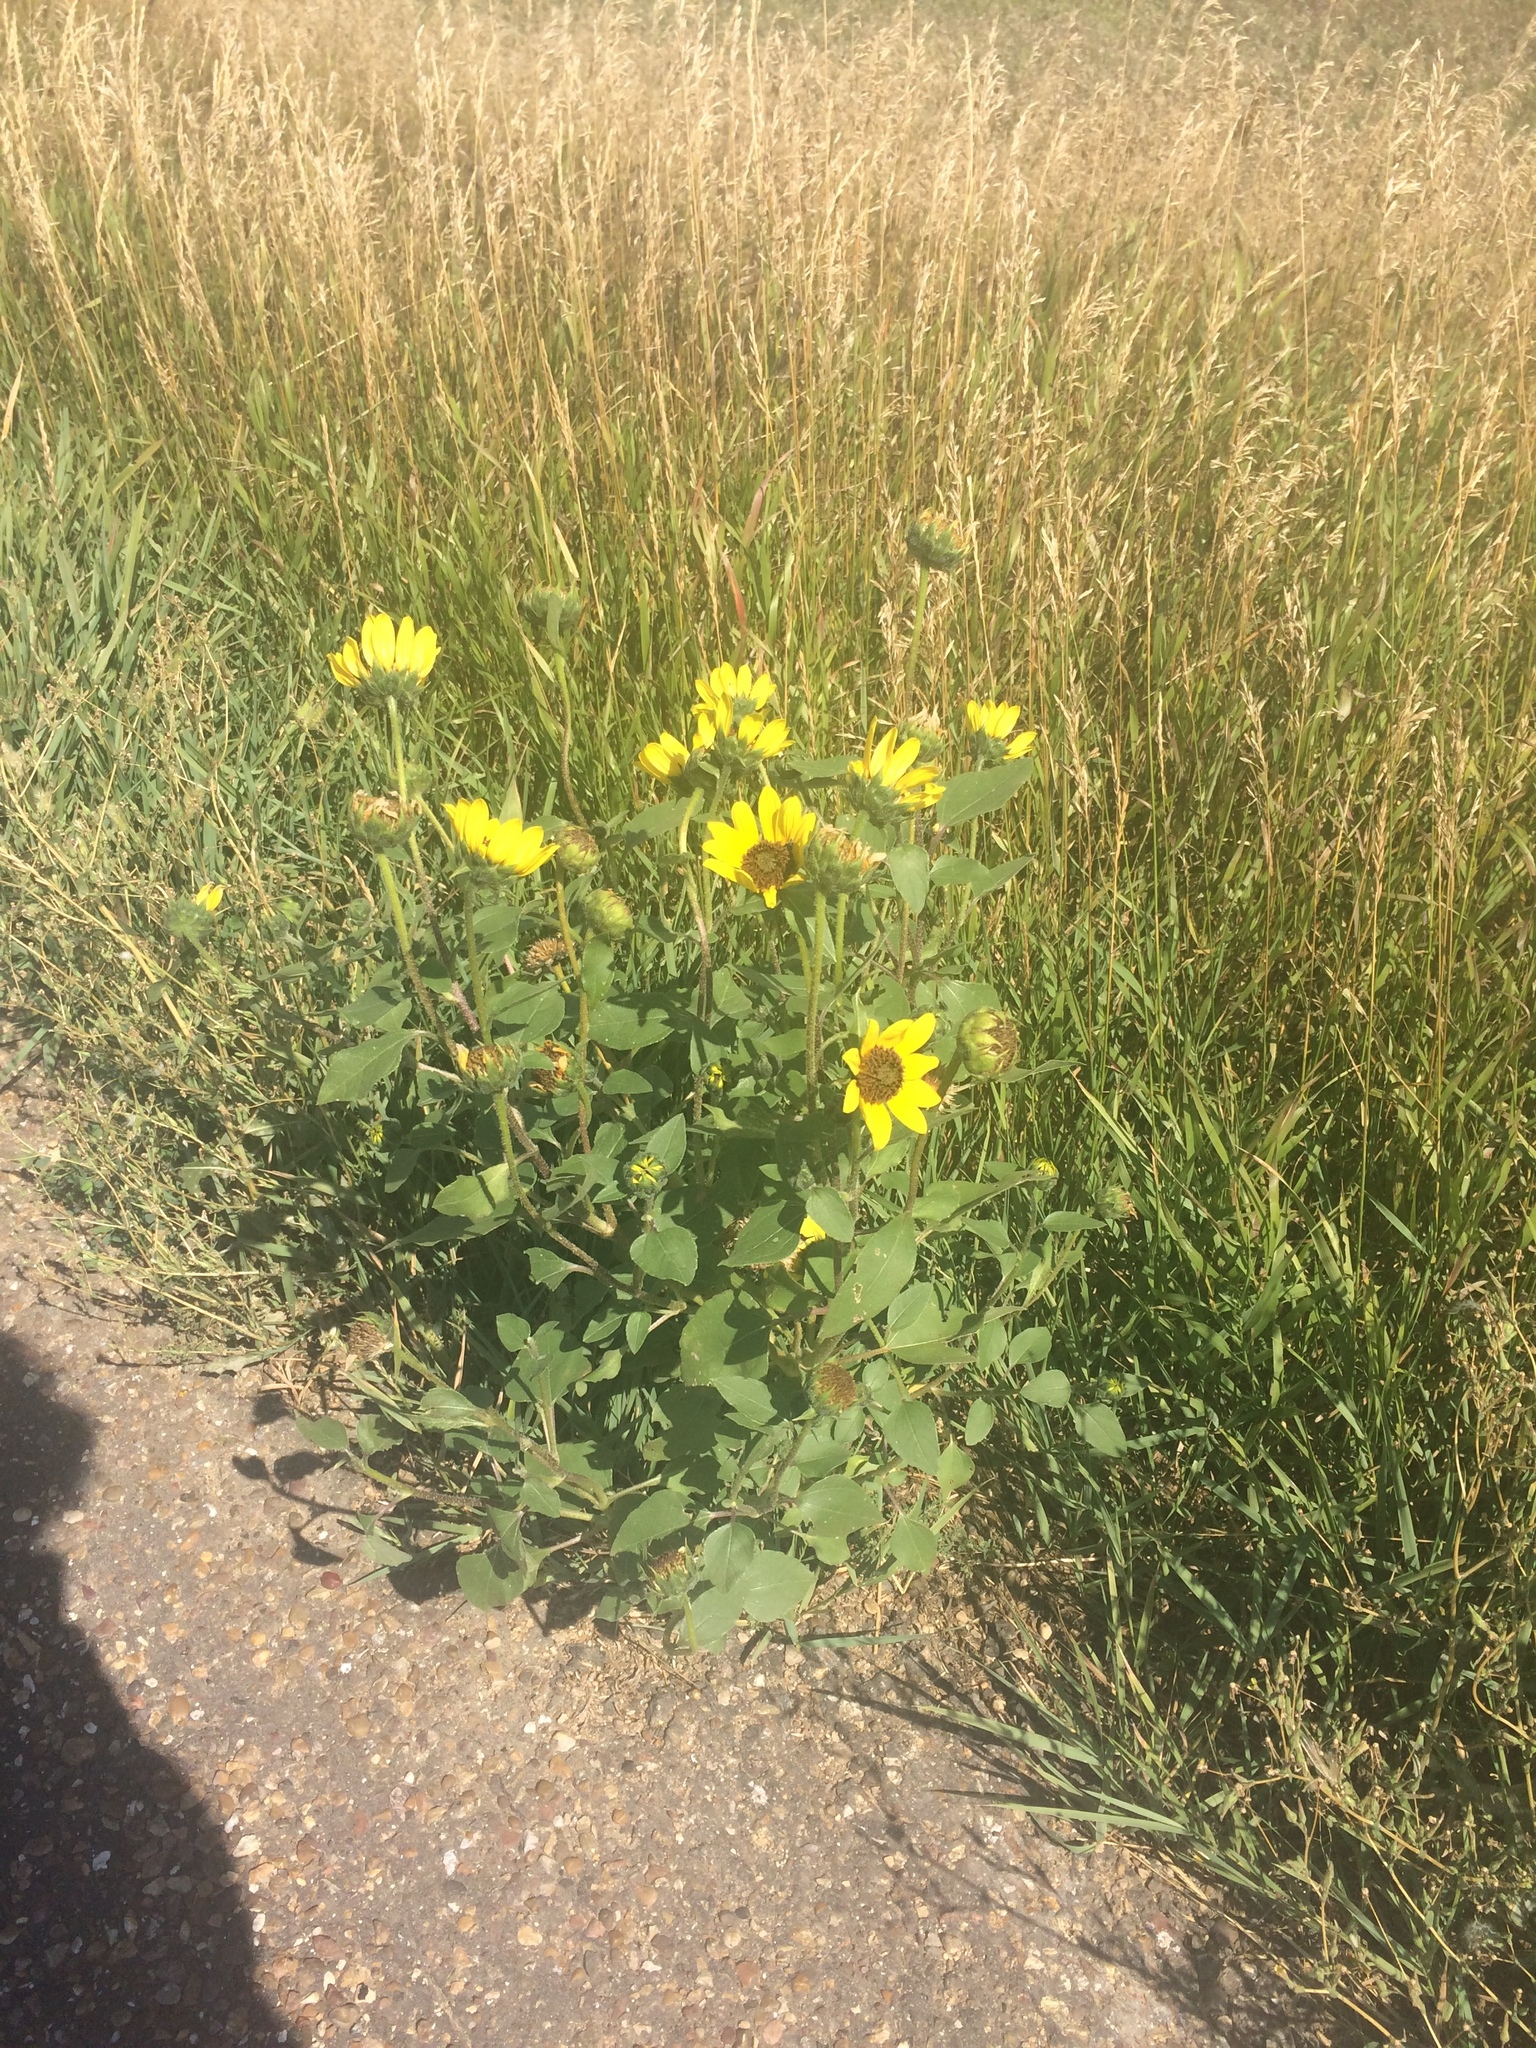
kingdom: Plantae
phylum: Tracheophyta
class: Magnoliopsida
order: Asterales
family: Asteraceae
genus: Helianthus
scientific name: Helianthus petiolaris
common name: Lesser sunflower
